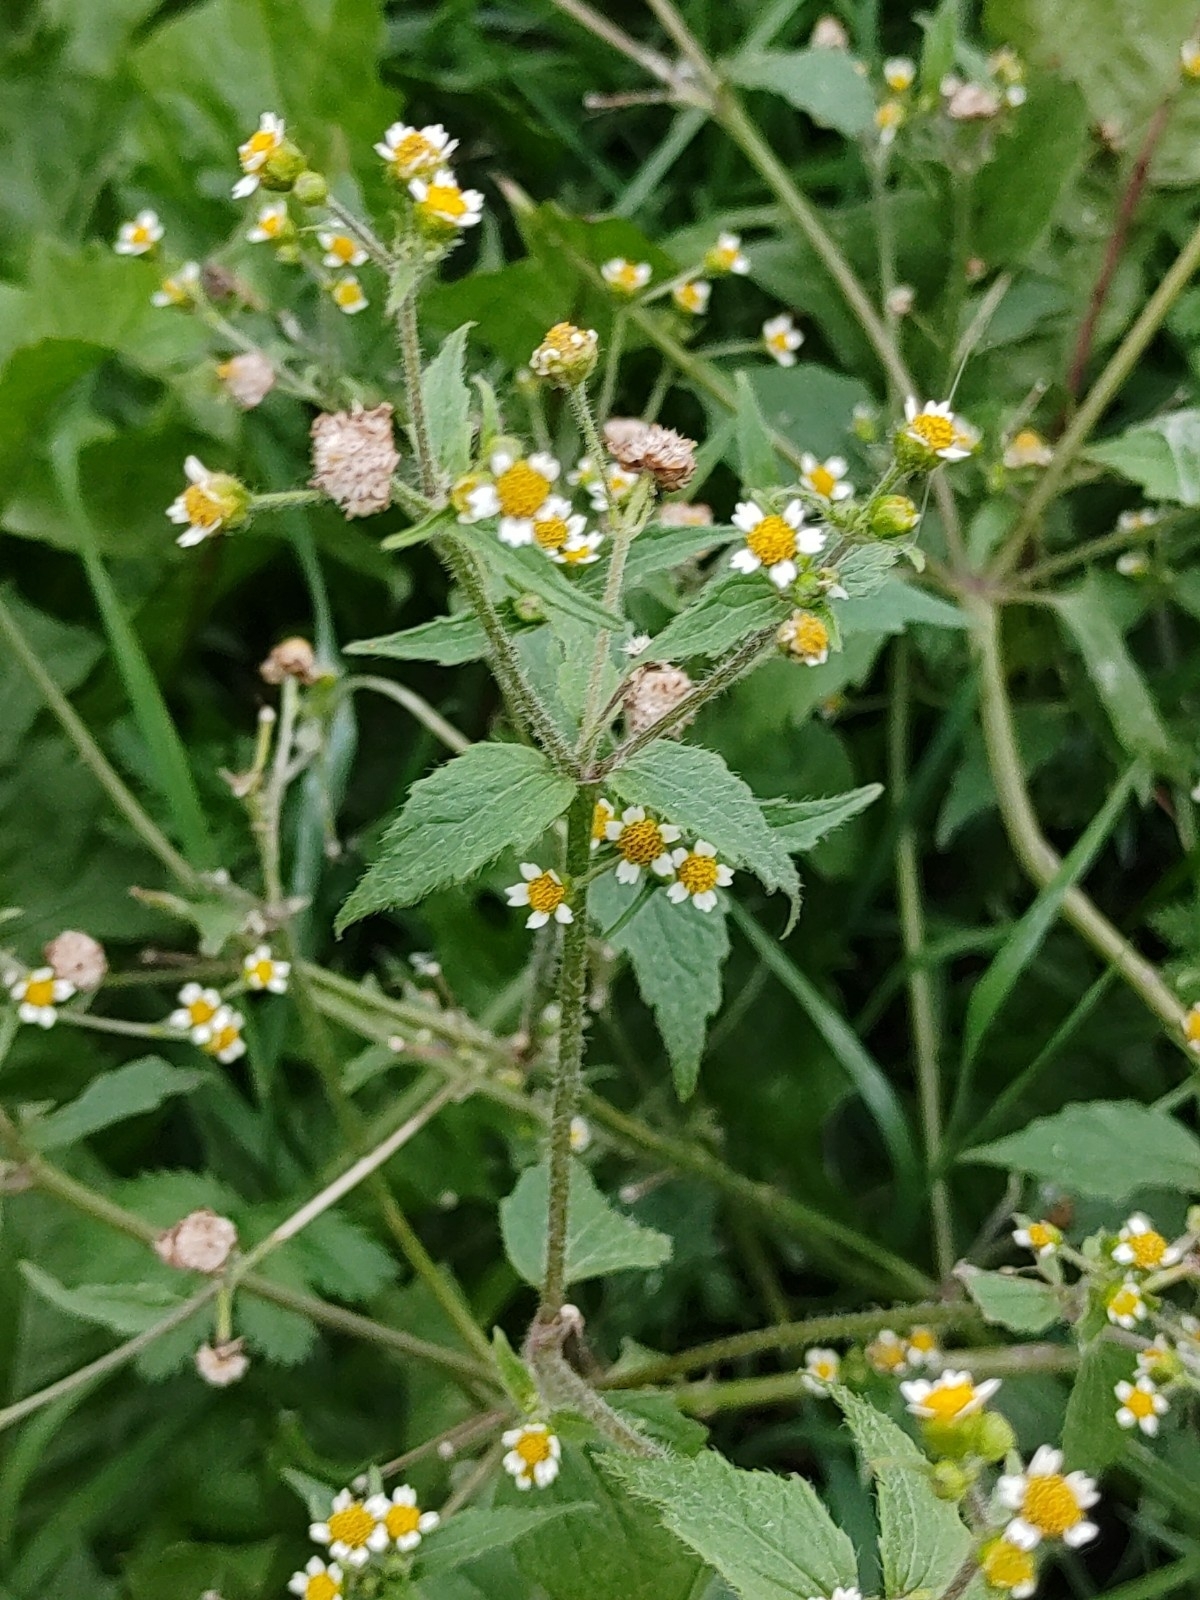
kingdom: Plantae
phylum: Tracheophyta
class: Magnoliopsida
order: Asterales
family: Asteraceae
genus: Galinsoga
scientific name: Galinsoga quadriradiata
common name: Shaggy soldier
